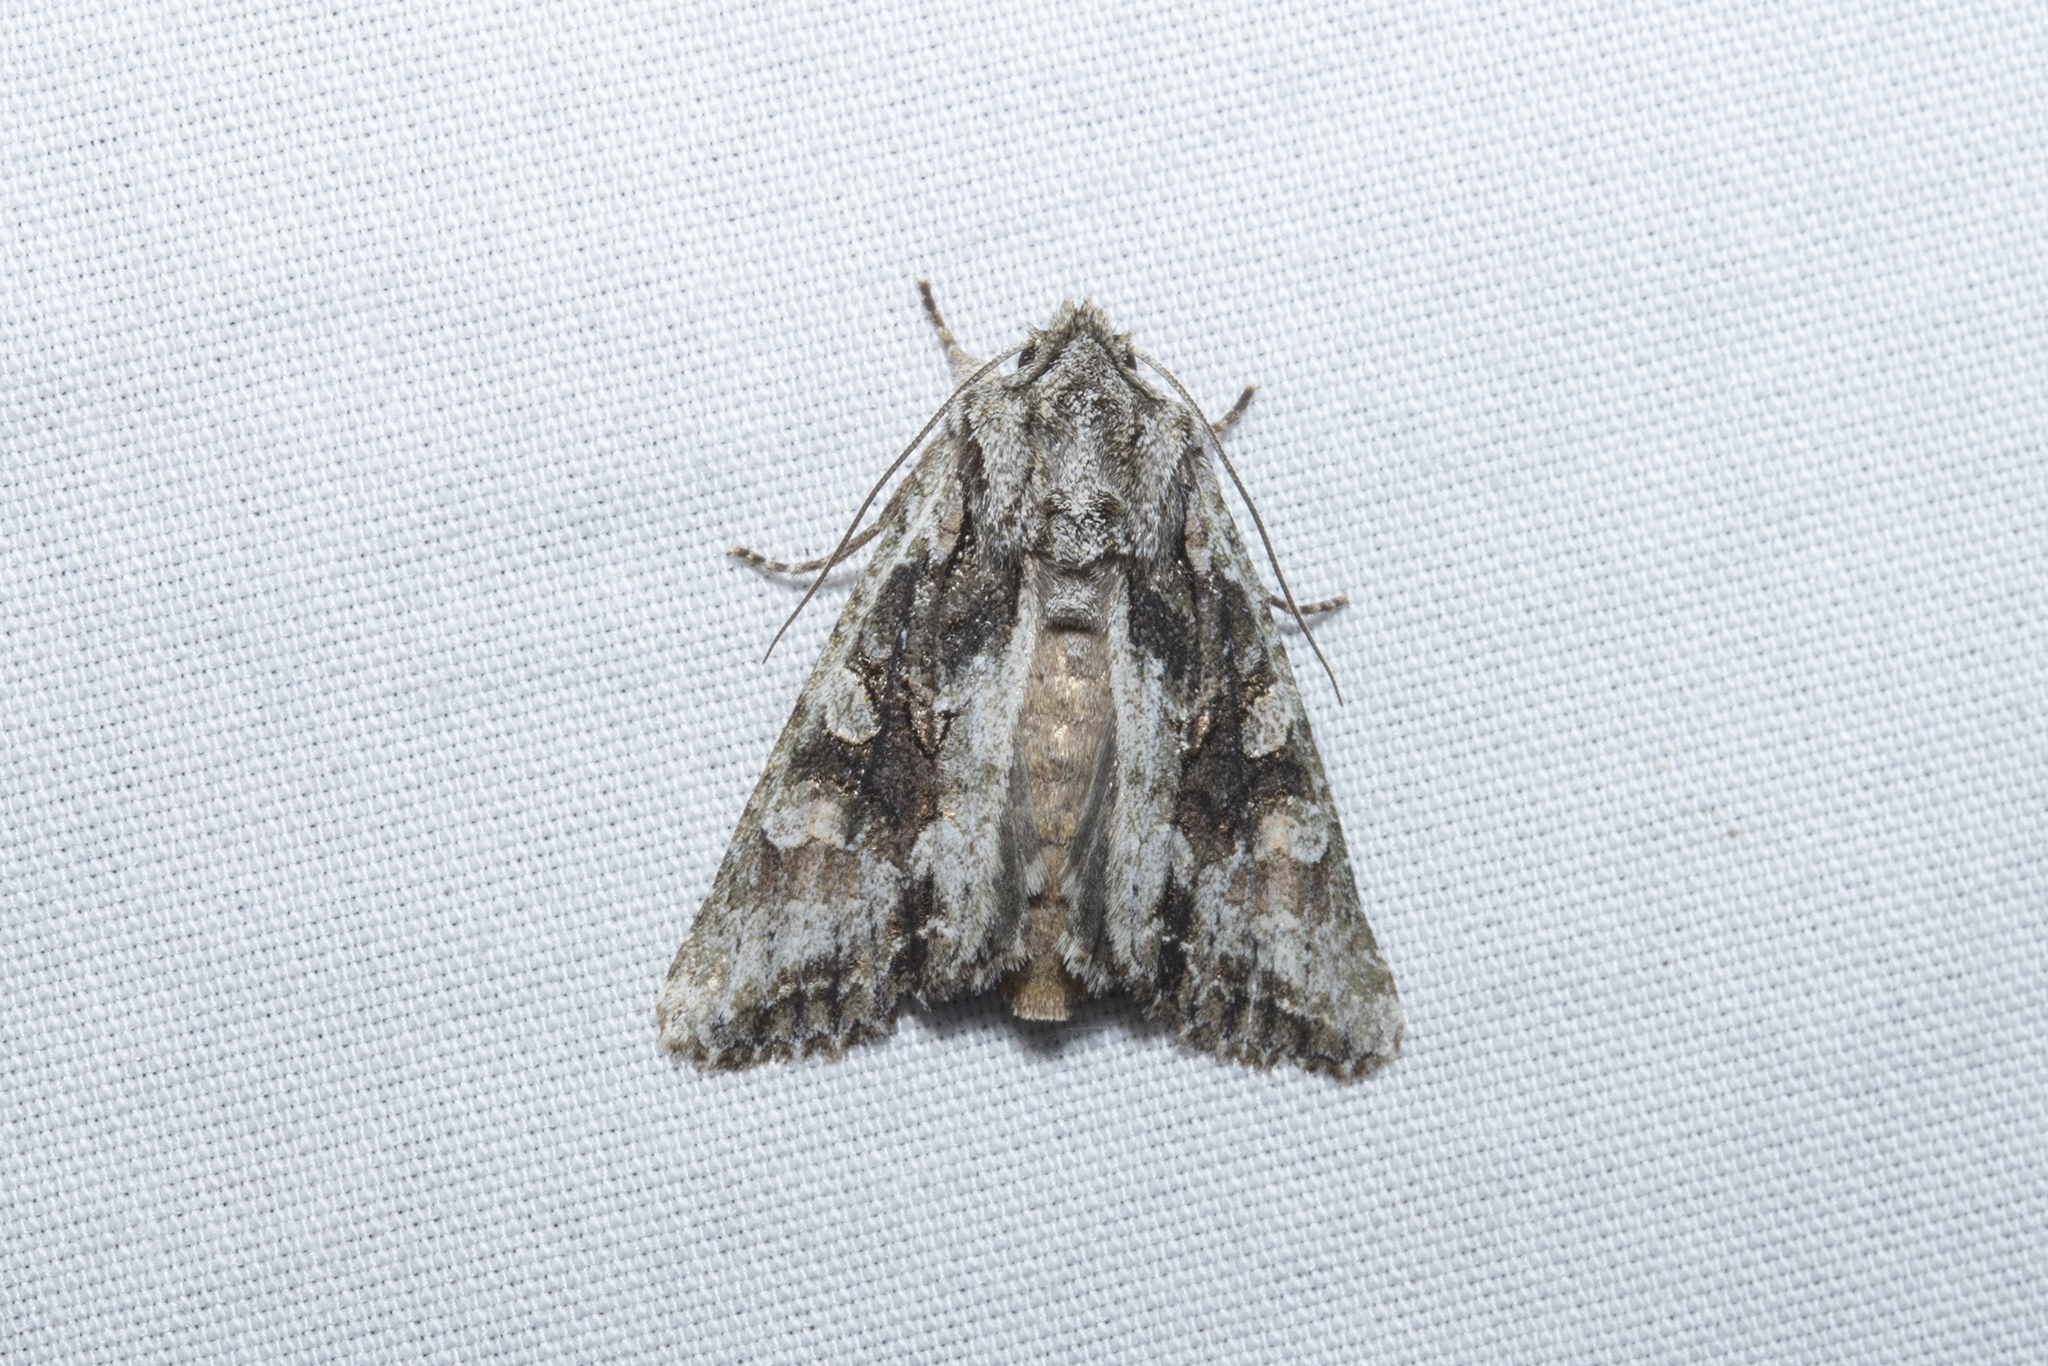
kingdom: Animalia
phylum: Arthropoda
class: Insecta
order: Lepidoptera
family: Noctuidae
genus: Ichneutica
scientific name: Ichneutica mutans
